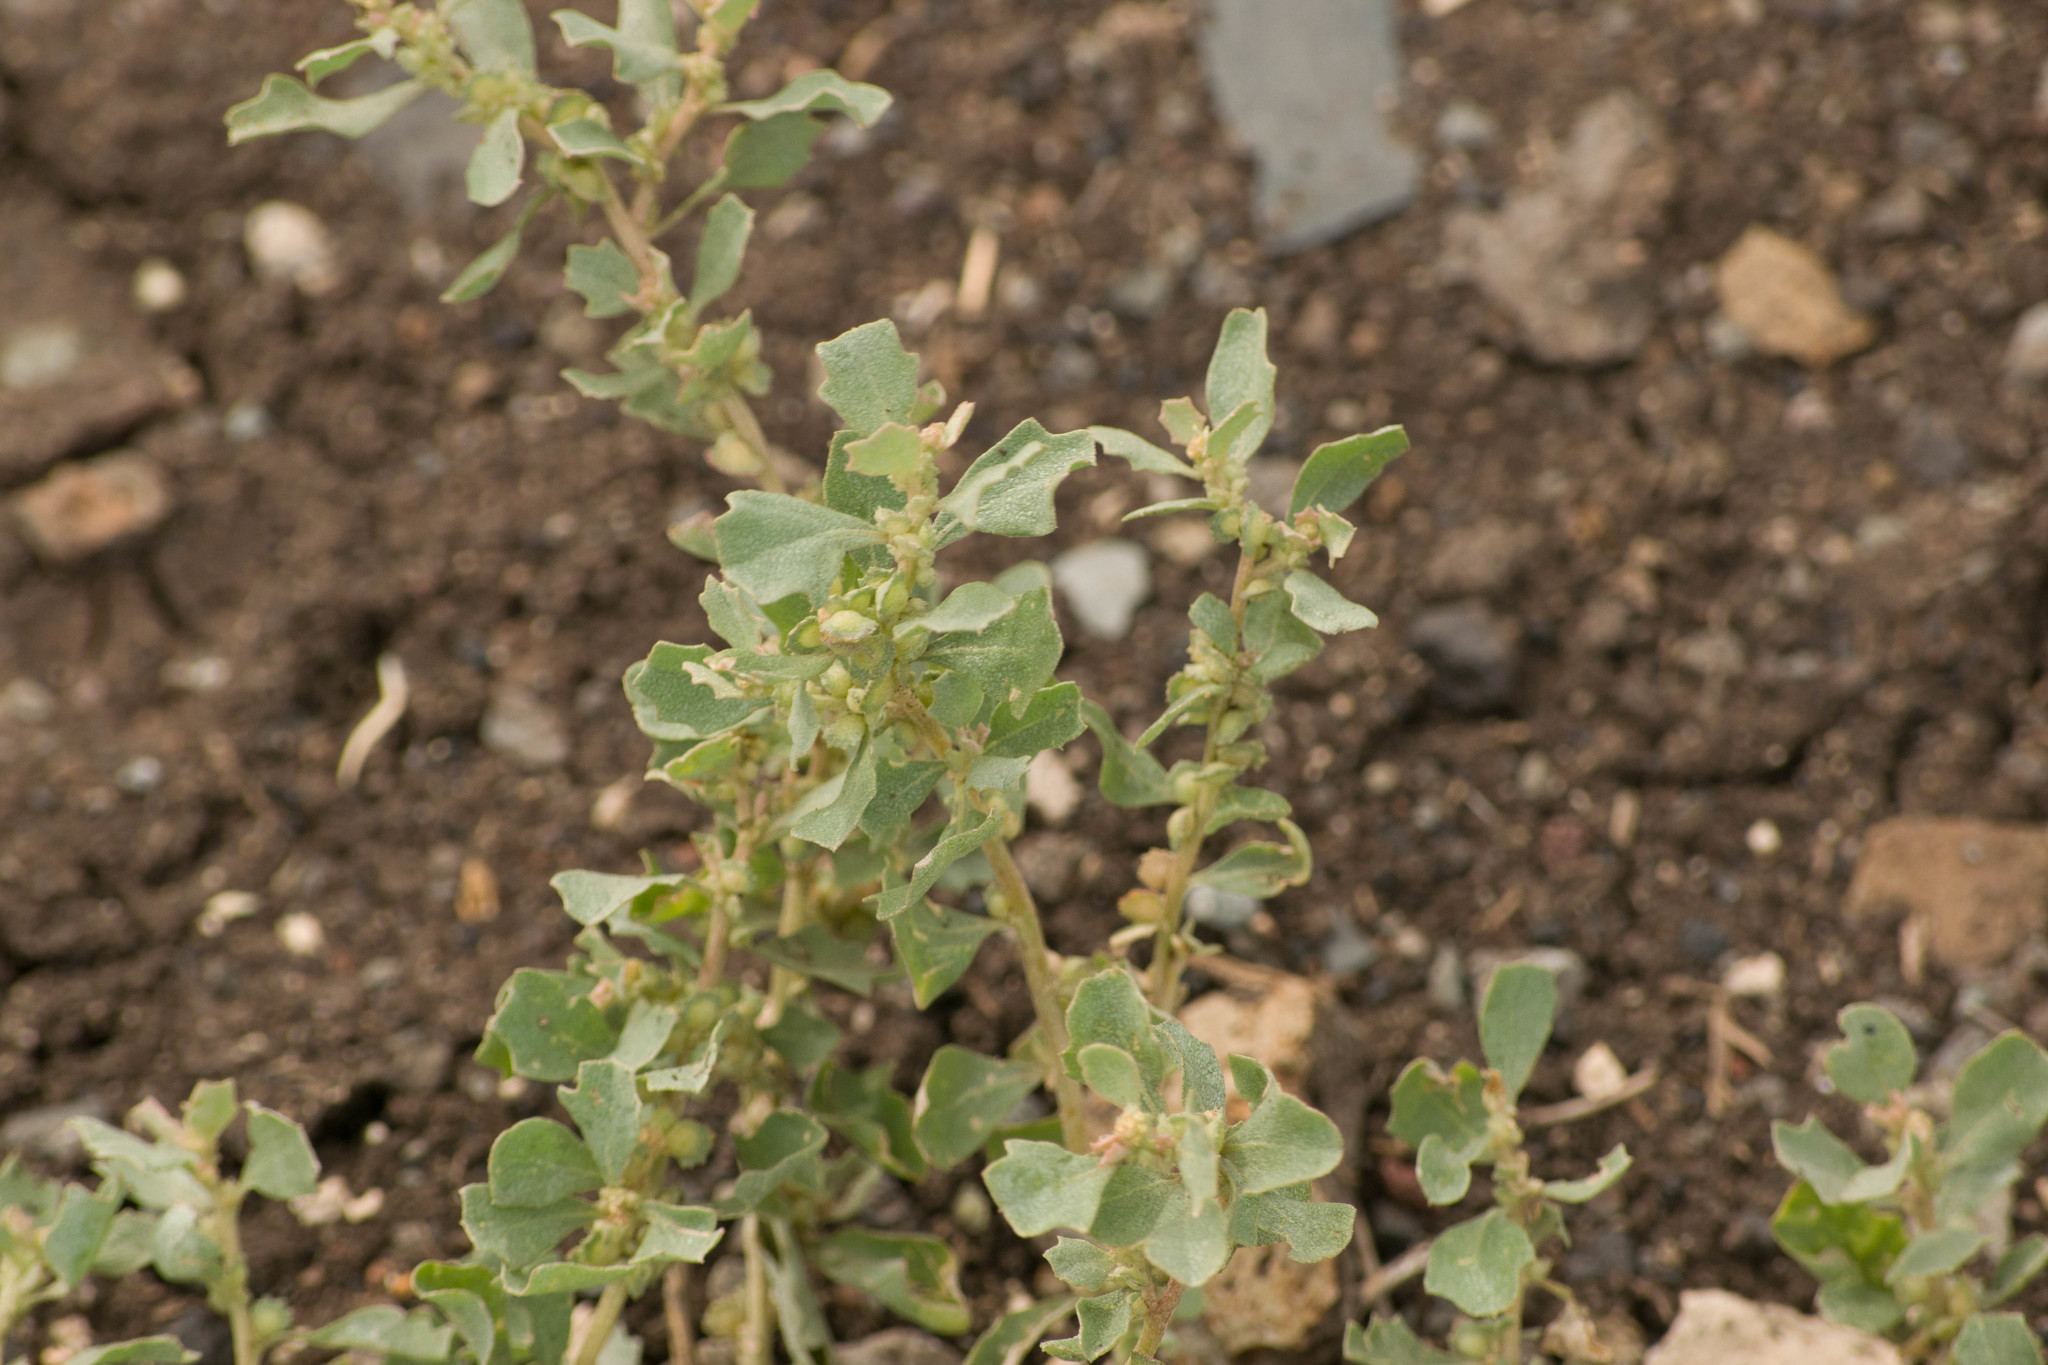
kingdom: Plantae
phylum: Tracheophyta
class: Magnoliopsida
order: Caryophyllales
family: Amaranthaceae
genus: Atriplex
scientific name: Atriplex muelleri
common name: Mueller's saltbush
